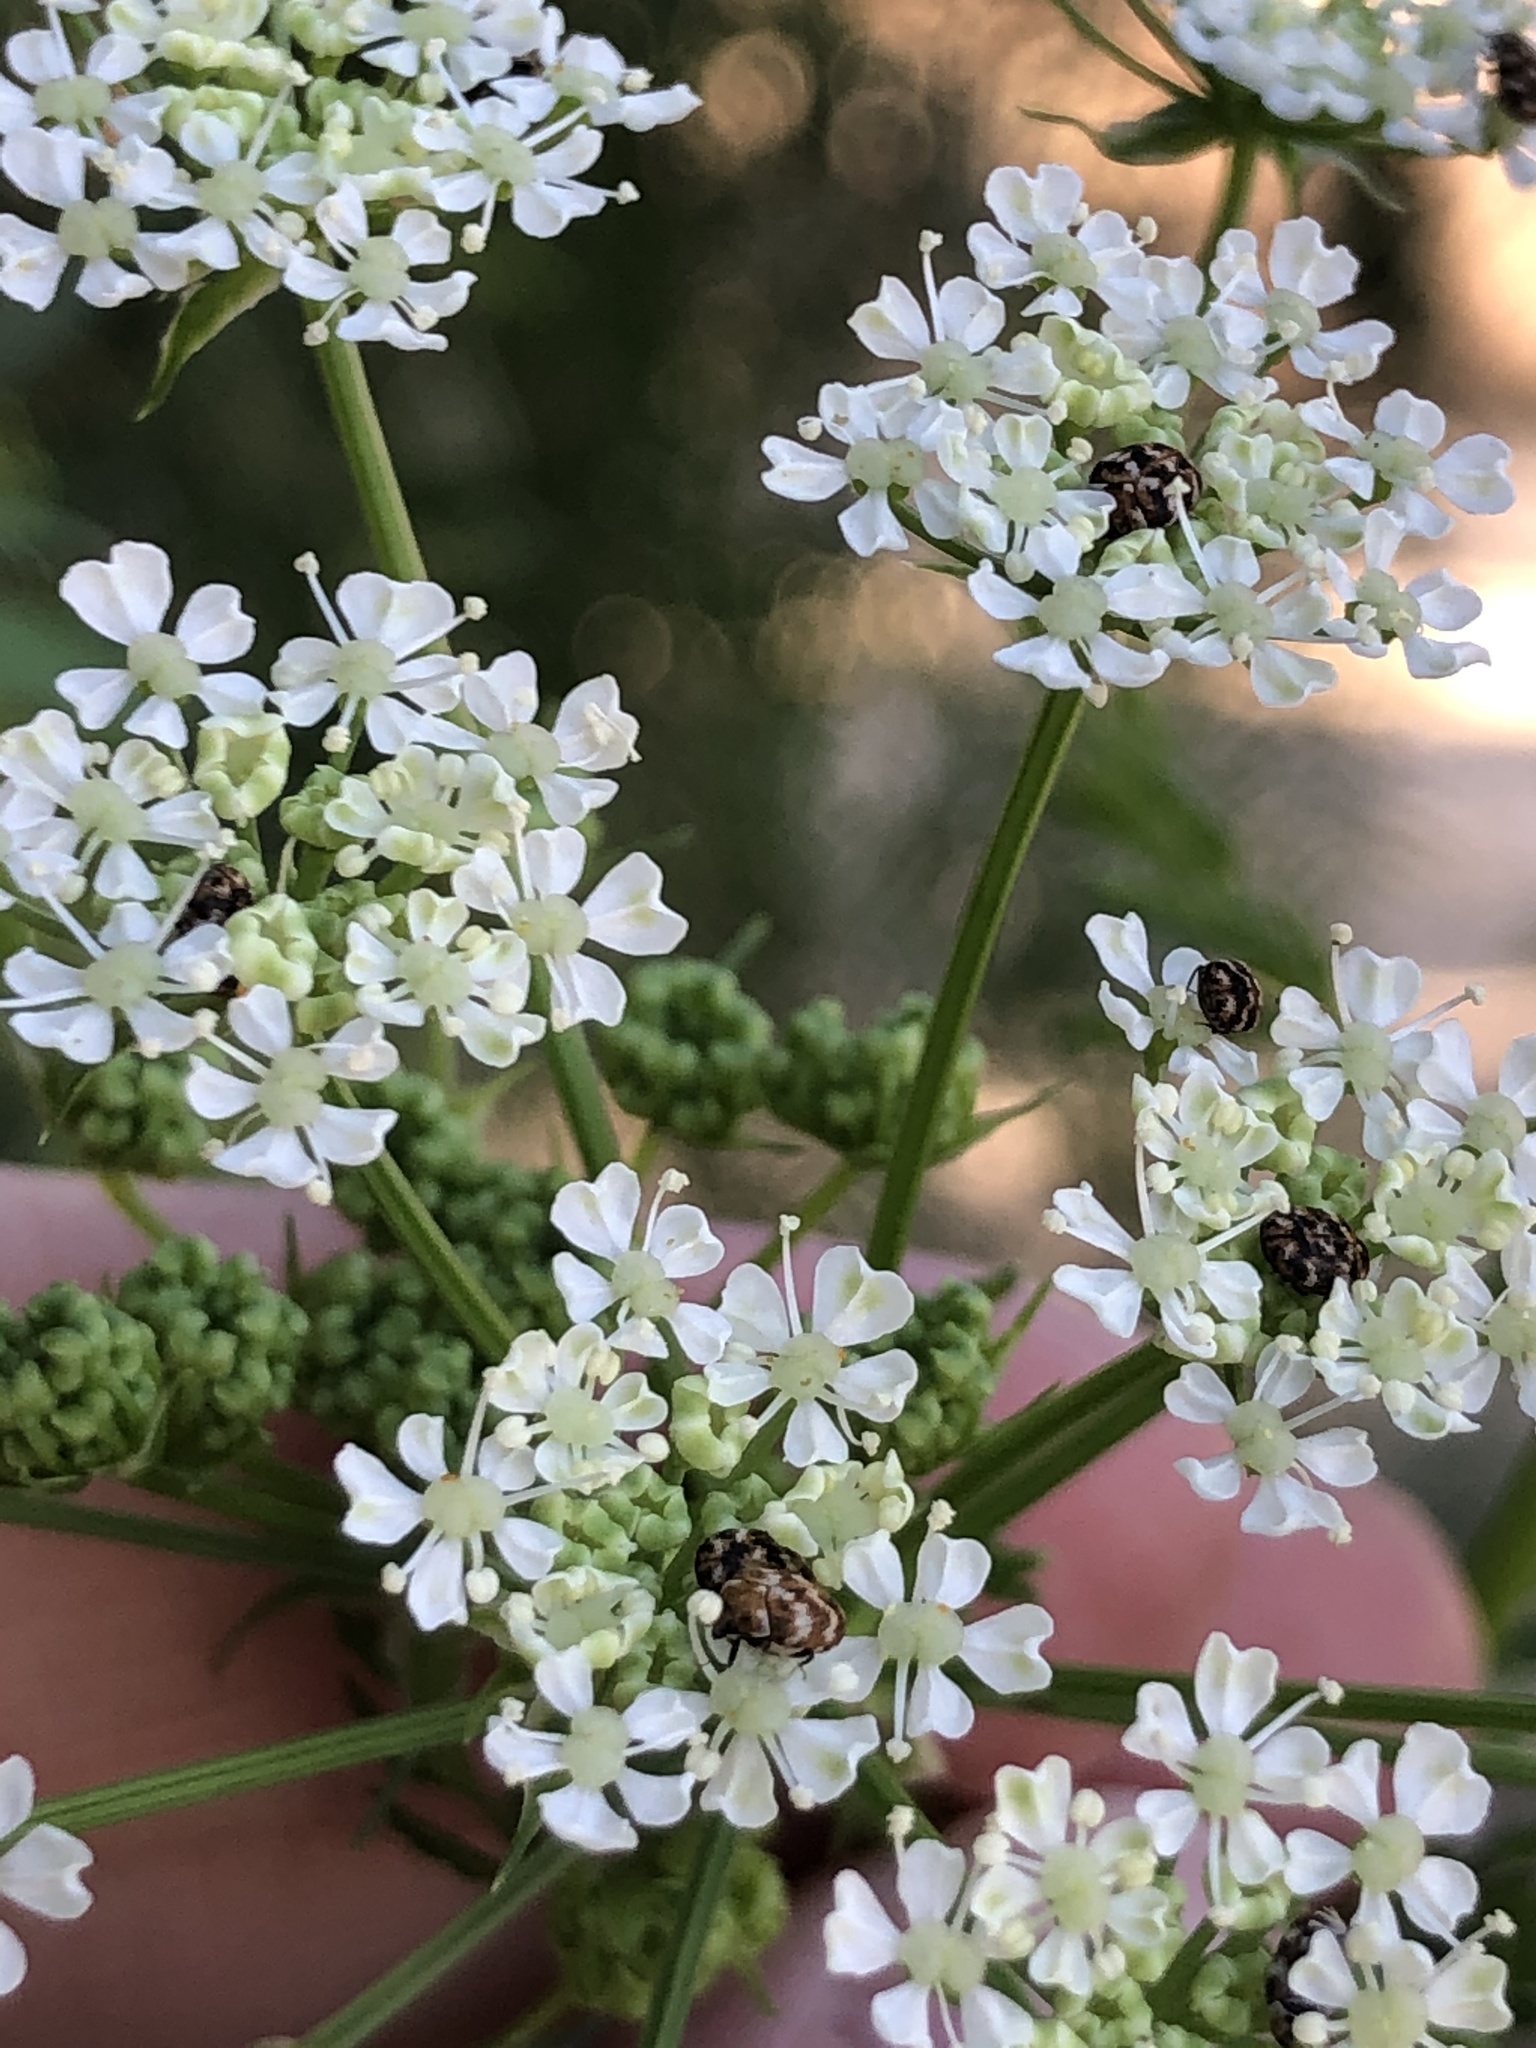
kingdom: Animalia
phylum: Arthropoda
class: Insecta
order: Coleoptera
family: Dermestidae
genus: Anthrenus
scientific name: Anthrenus verbasci
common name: Varied carpet beetle
